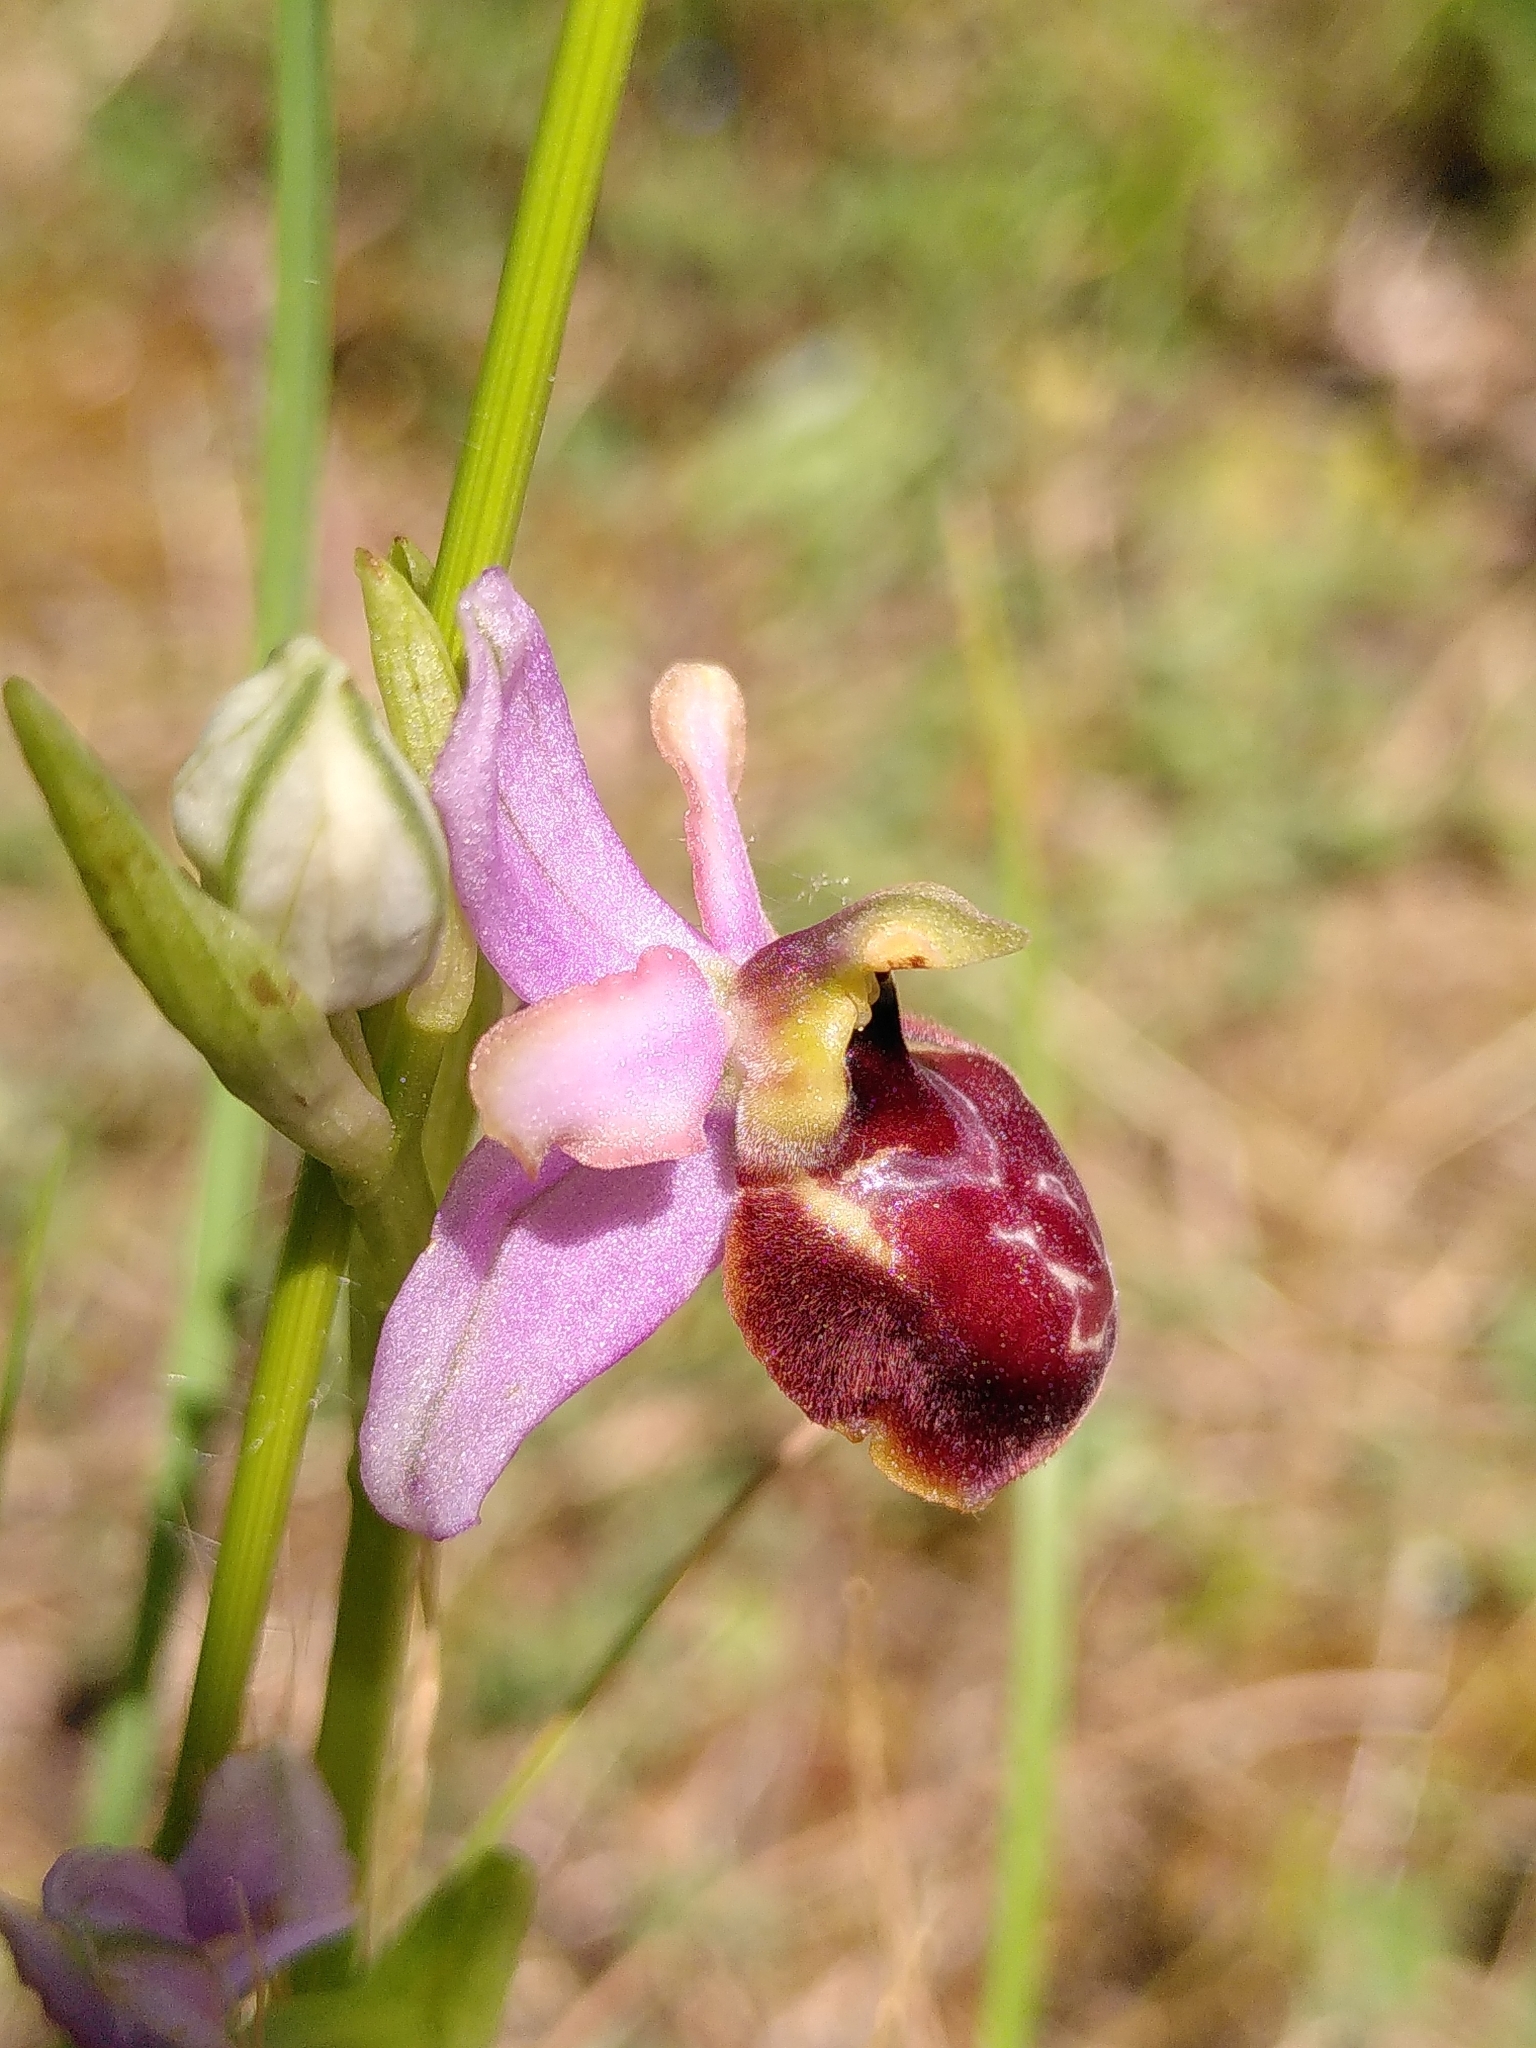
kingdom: Plantae
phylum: Tracheophyta
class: Liliopsida
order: Asparagales
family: Orchidaceae
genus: Ophrys
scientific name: Ophrys sphegodes
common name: Early spider-orchid
